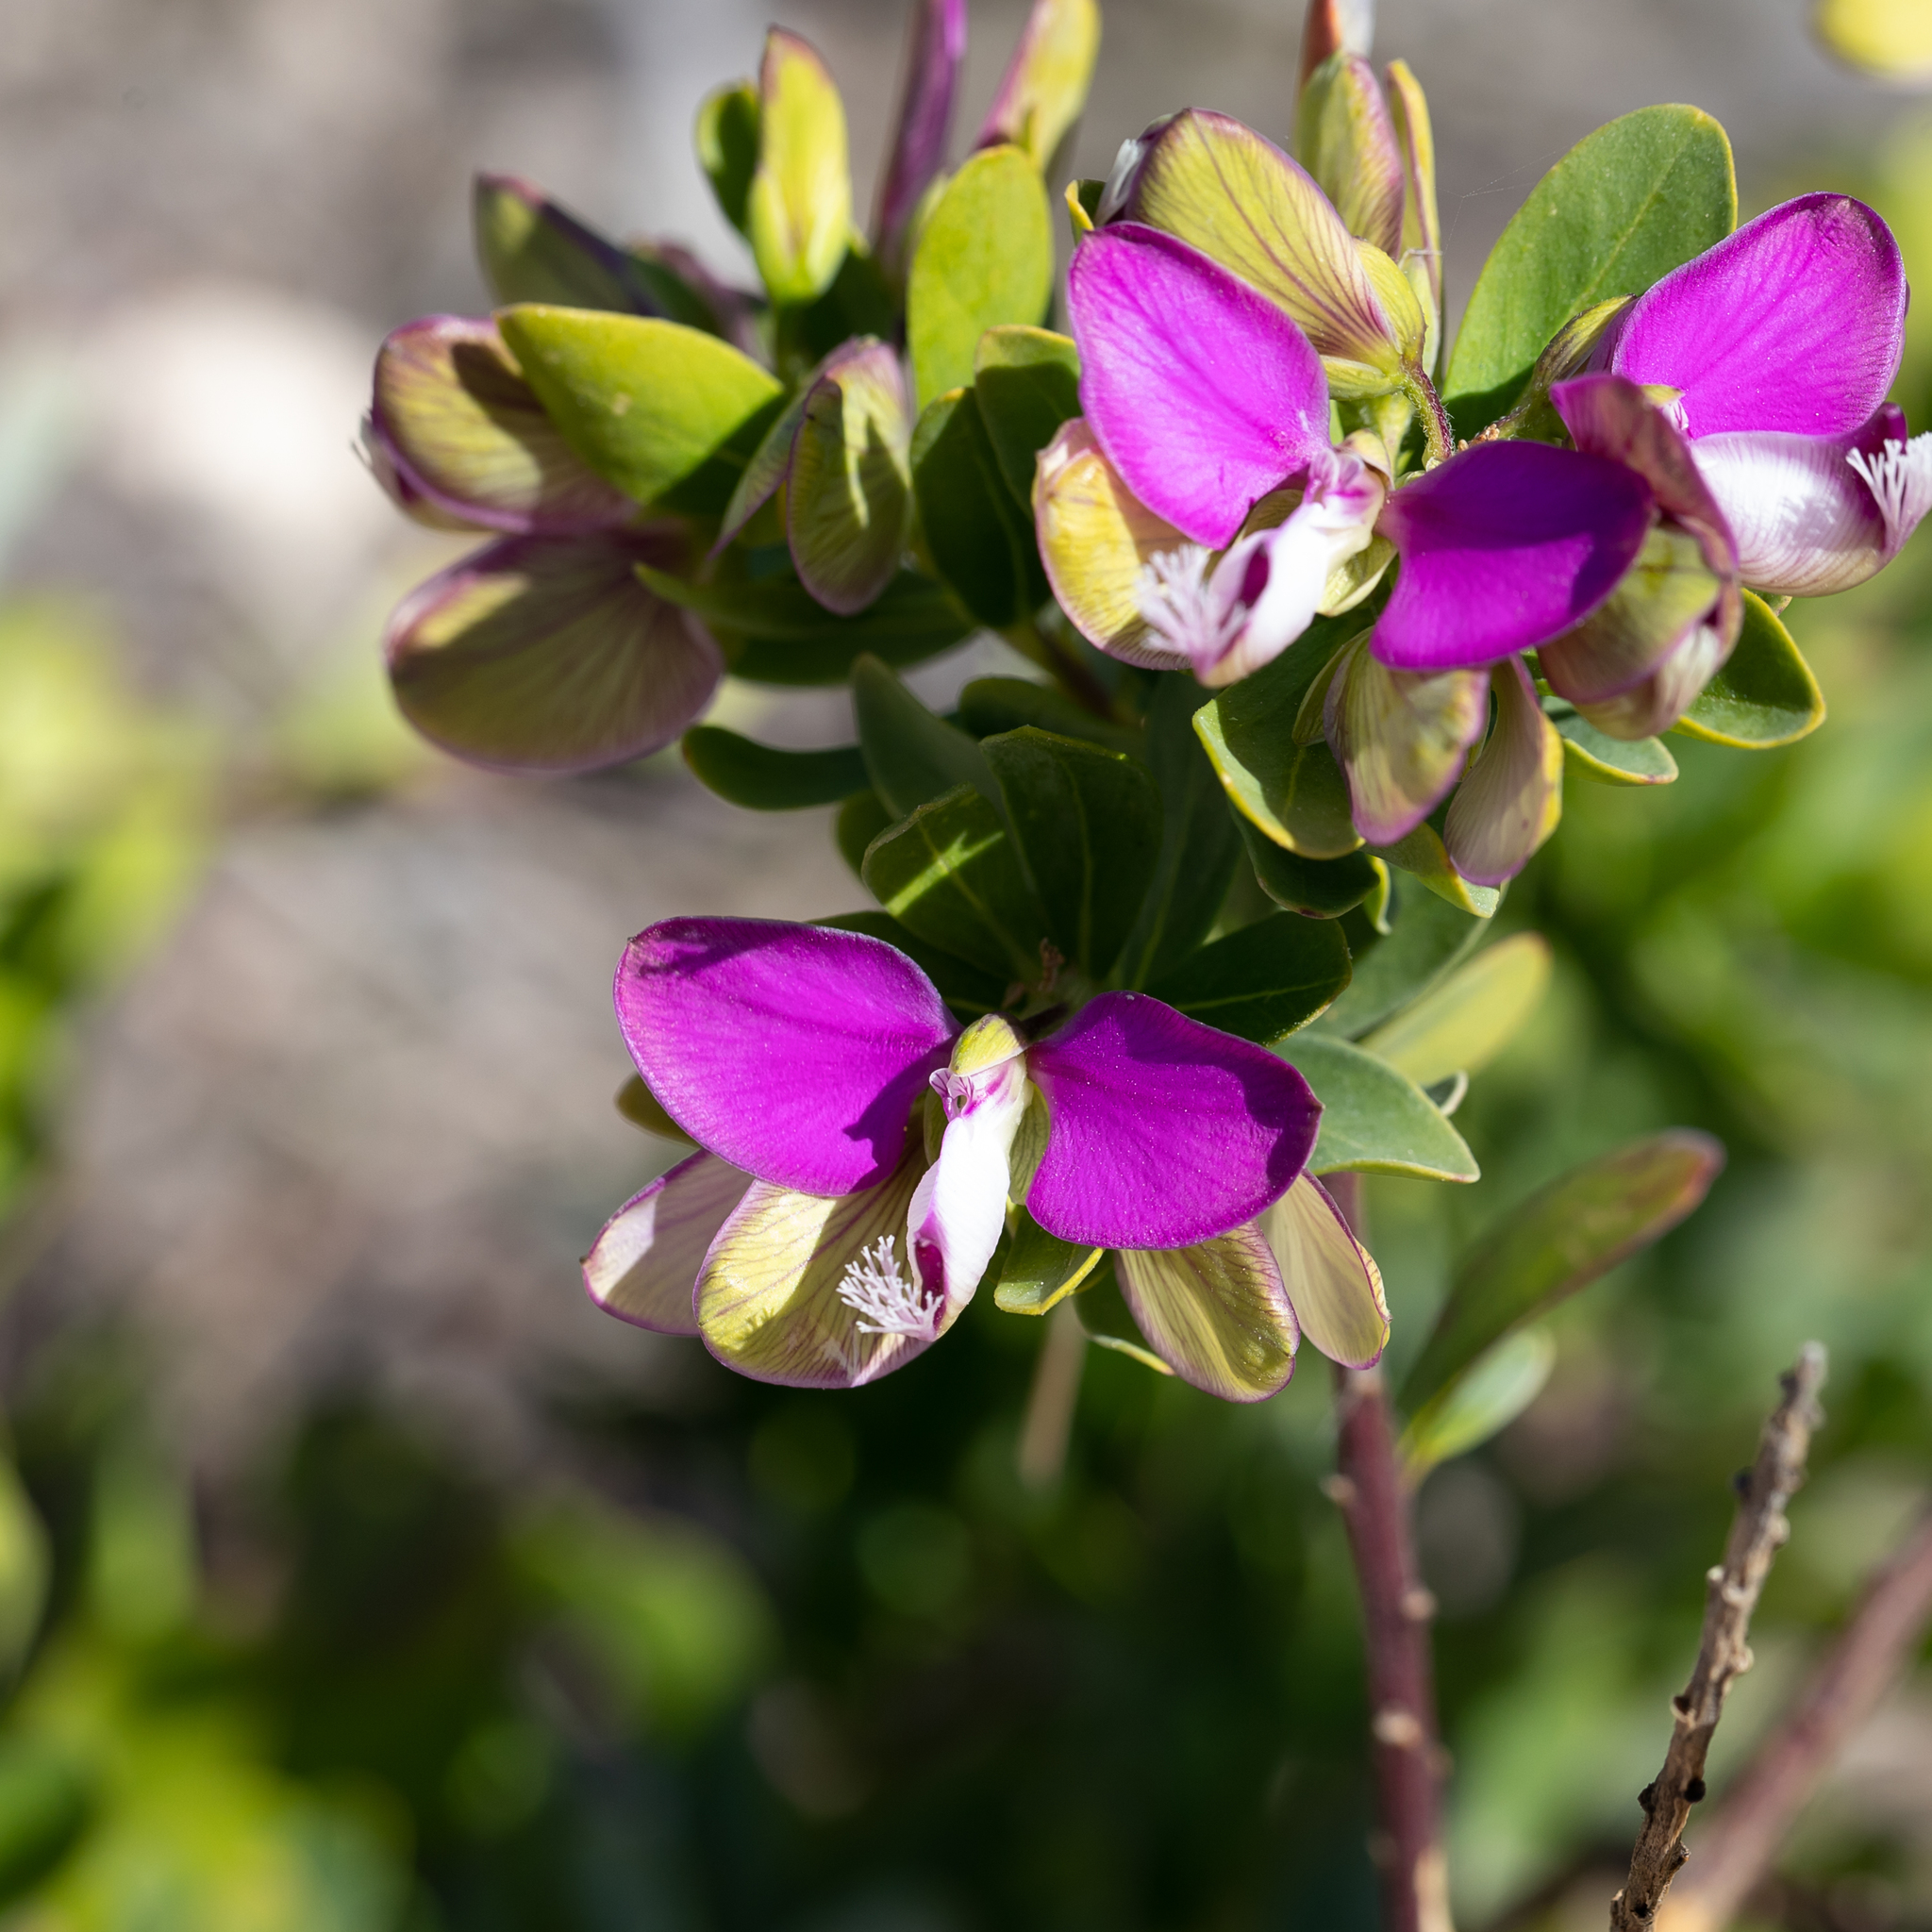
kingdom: Plantae
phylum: Tracheophyta
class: Magnoliopsida
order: Fabales
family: Polygalaceae
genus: Polygala
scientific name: Polygala myrtifolia
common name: Myrtle-leaf milkwort
